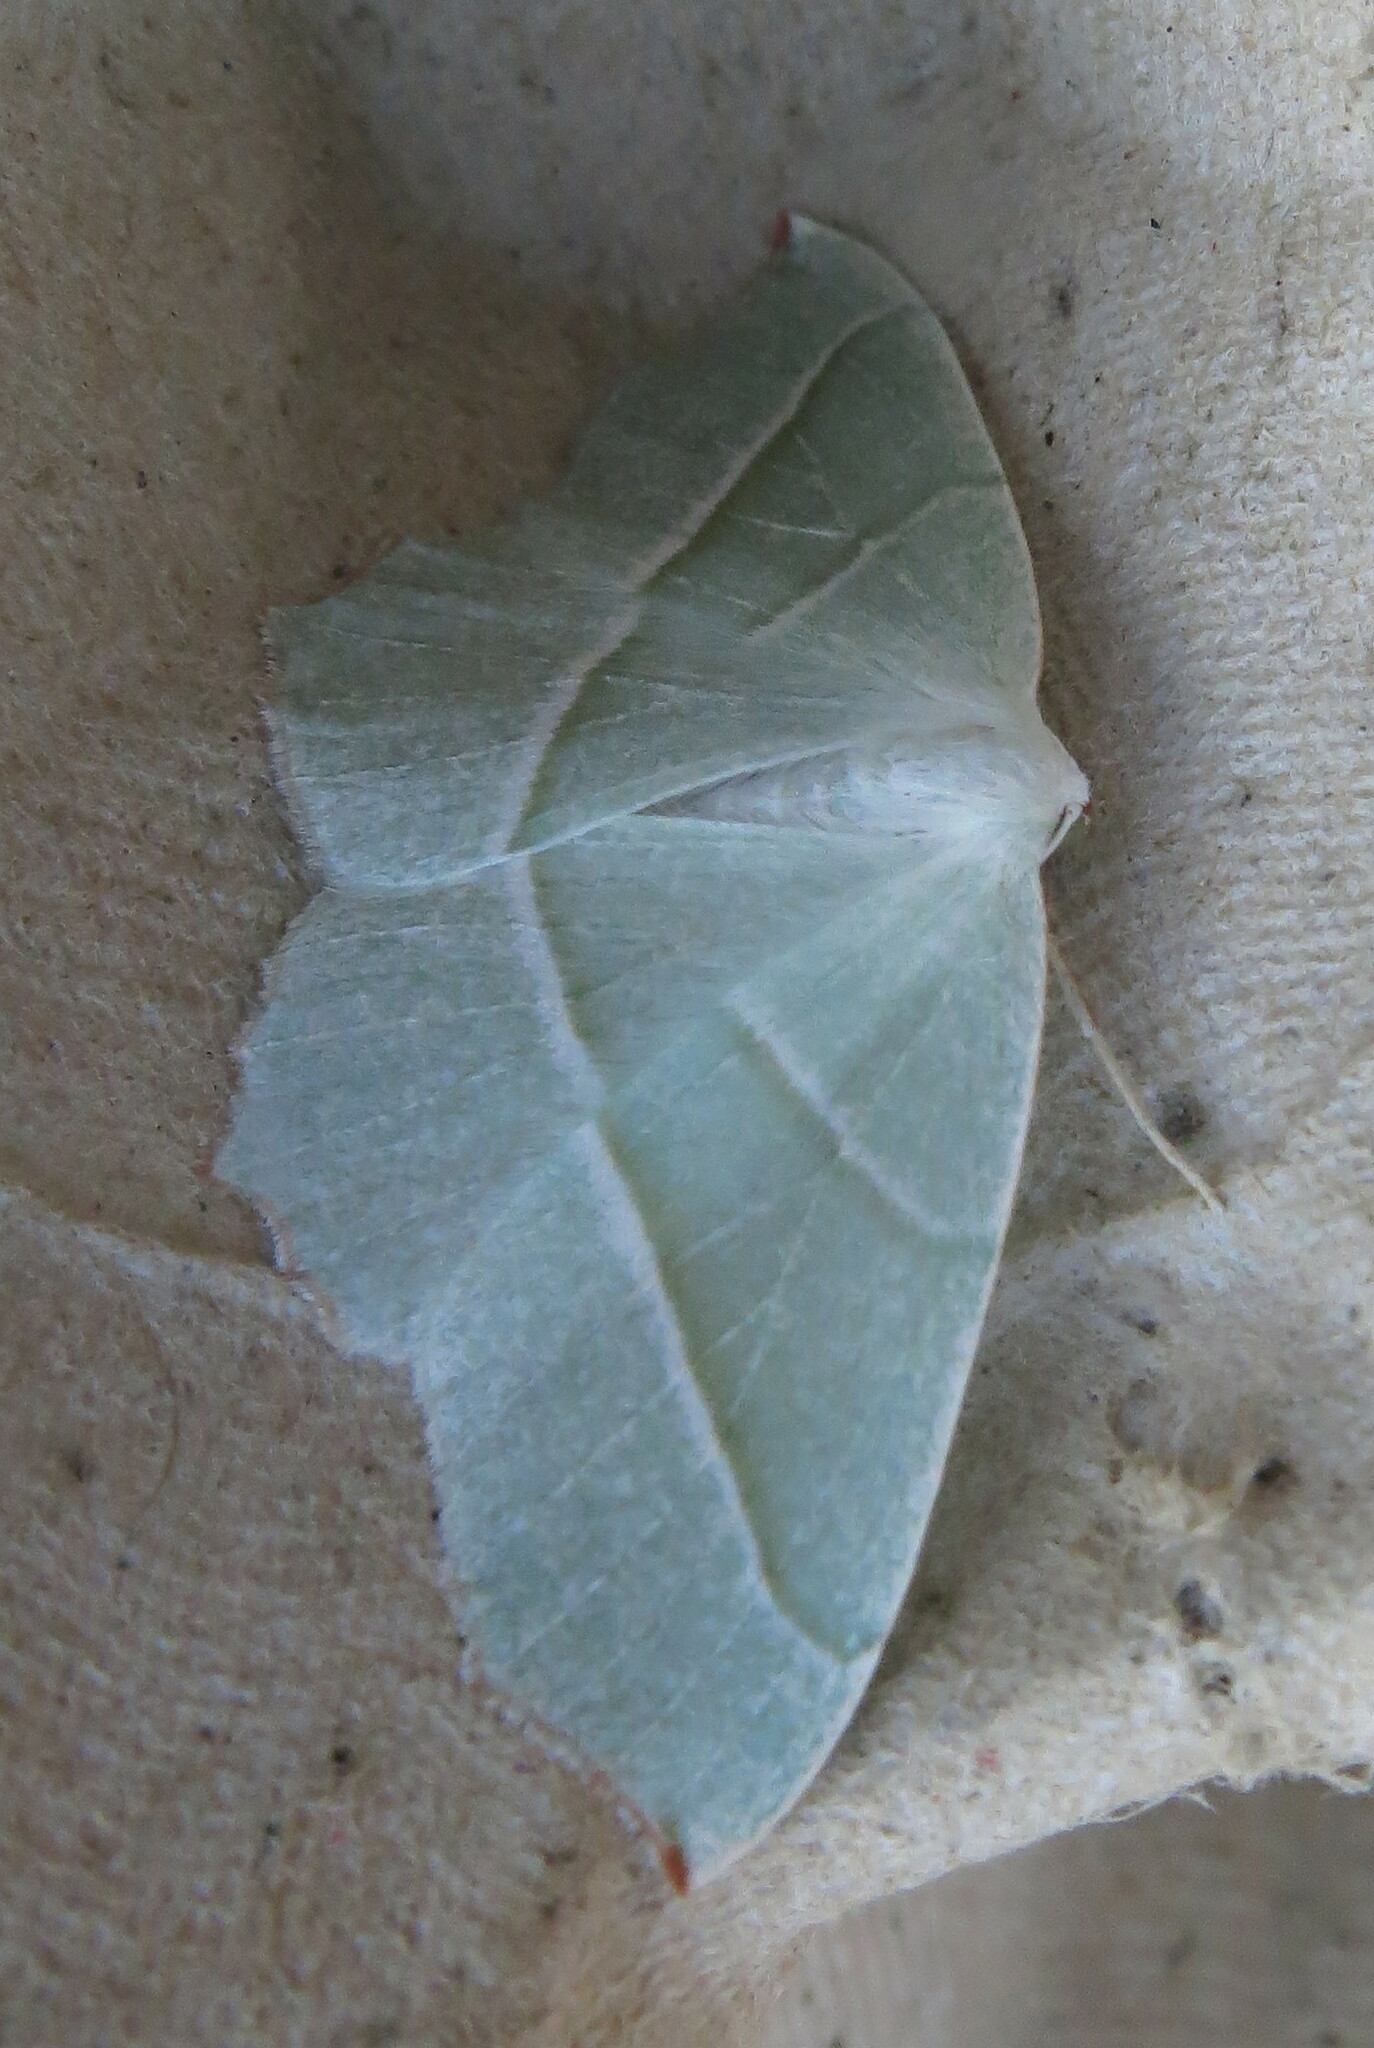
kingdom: Animalia
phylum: Arthropoda
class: Insecta
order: Lepidoptera
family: Geometridae
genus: Campaea
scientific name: Campaea margaritaria
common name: Light emerald
